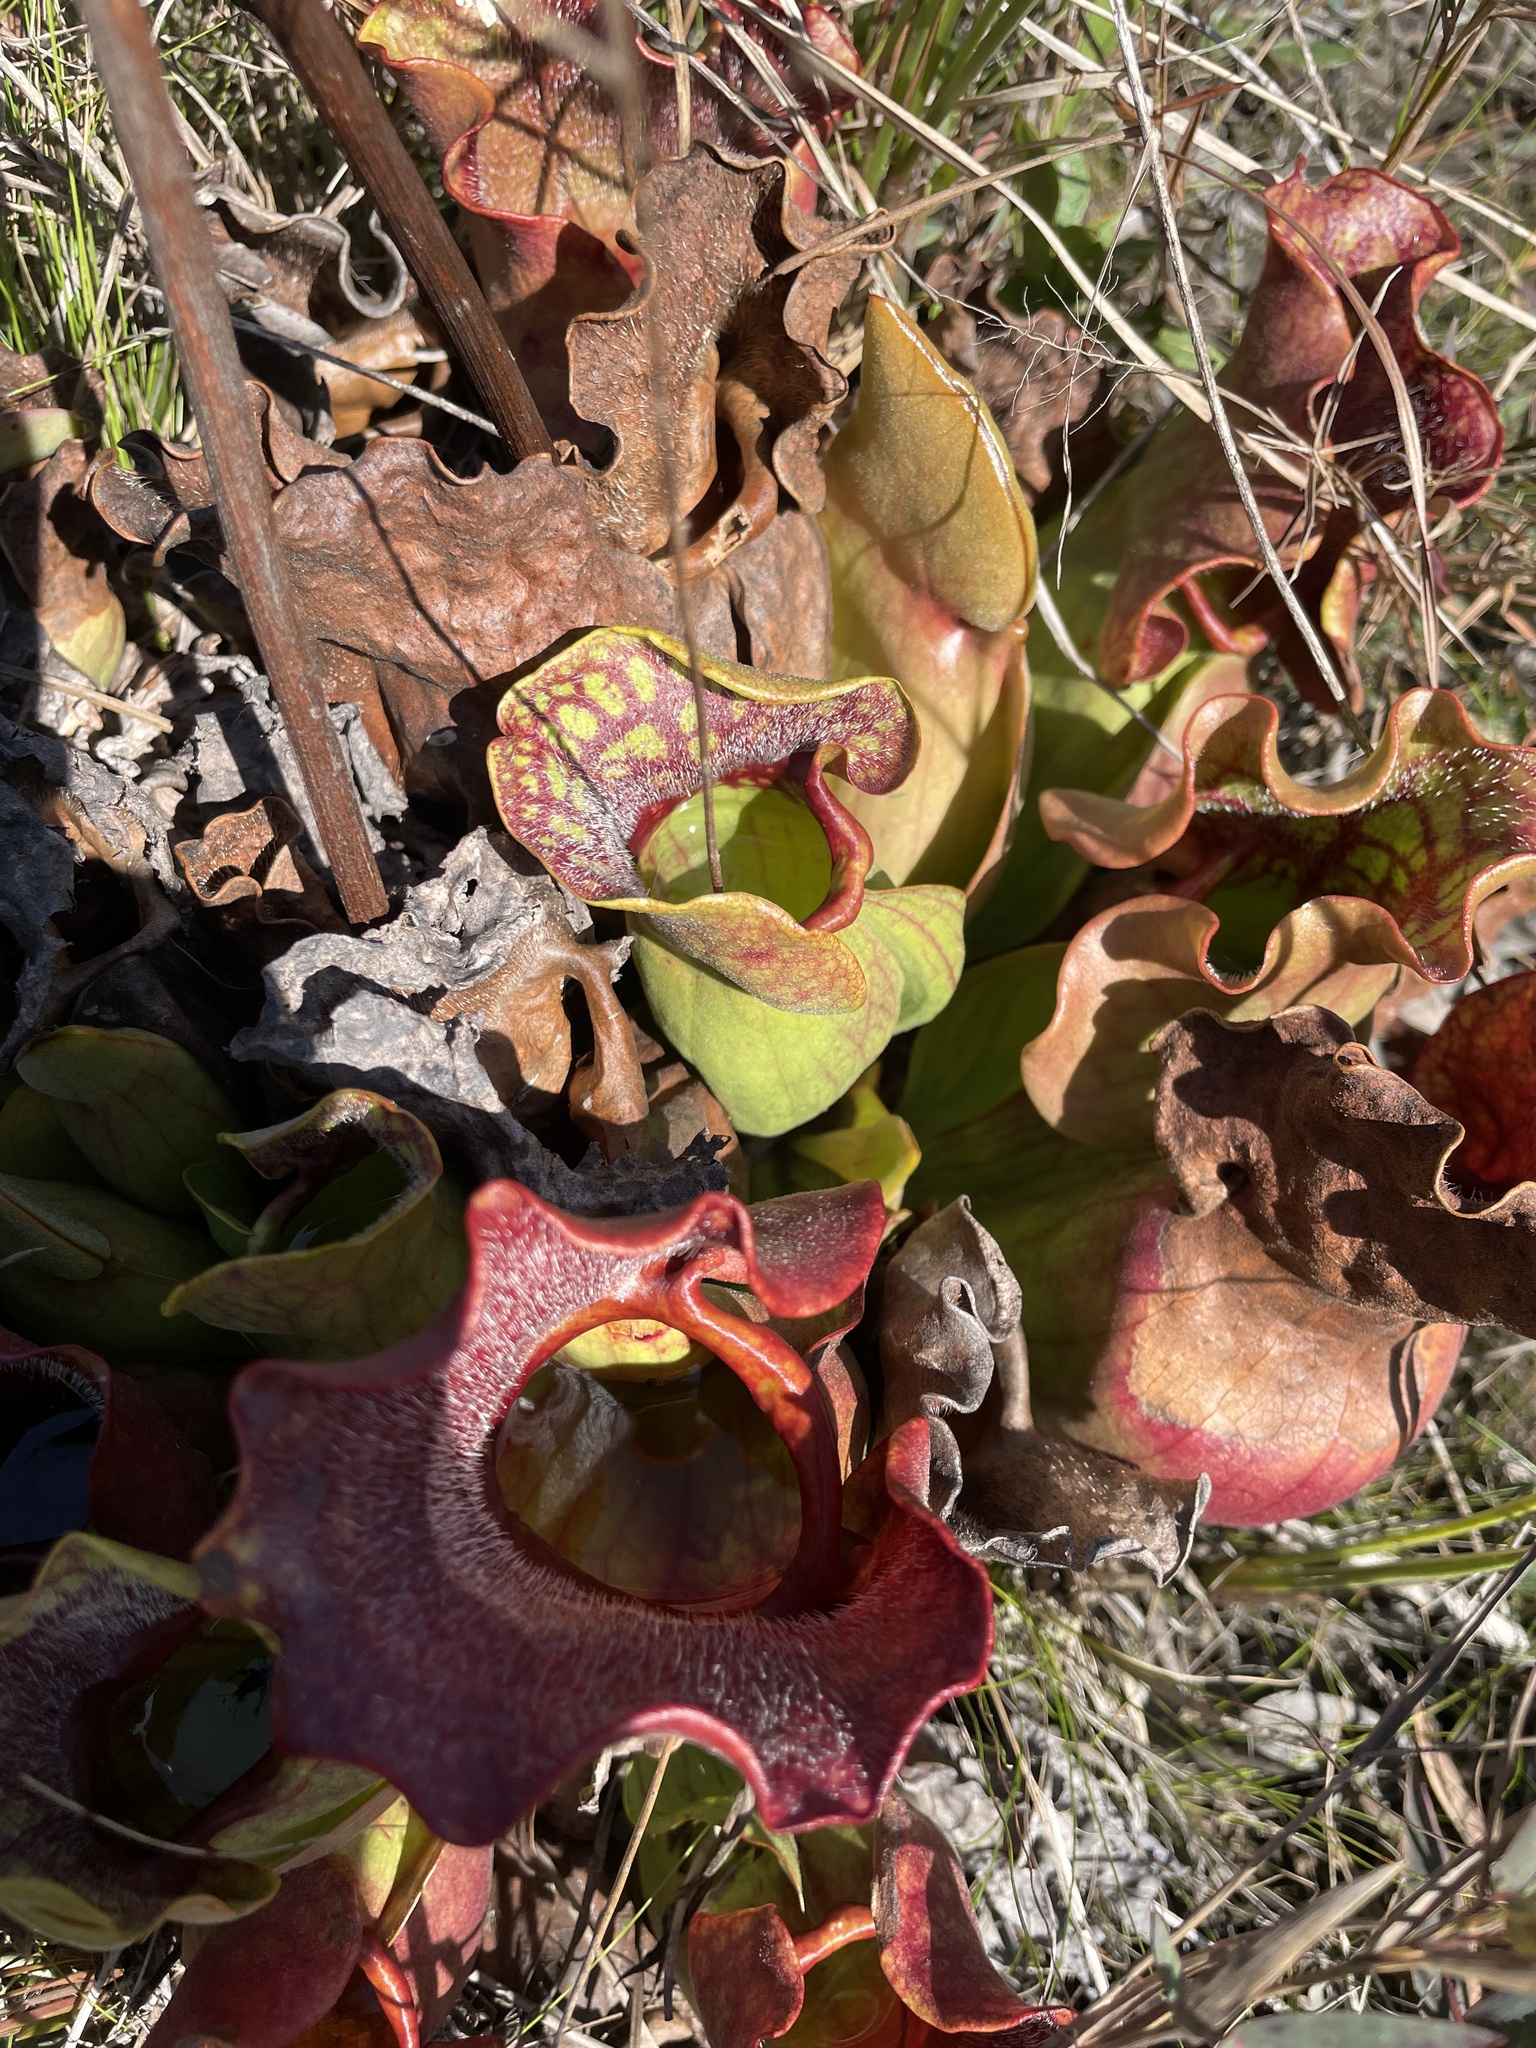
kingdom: Plantae
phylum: Tracheophyta
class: Magnoliopsida
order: Ericales
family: Sarraceniaceae
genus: Sarracenia
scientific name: Sarracenia purpurea
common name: Pitcherplant
